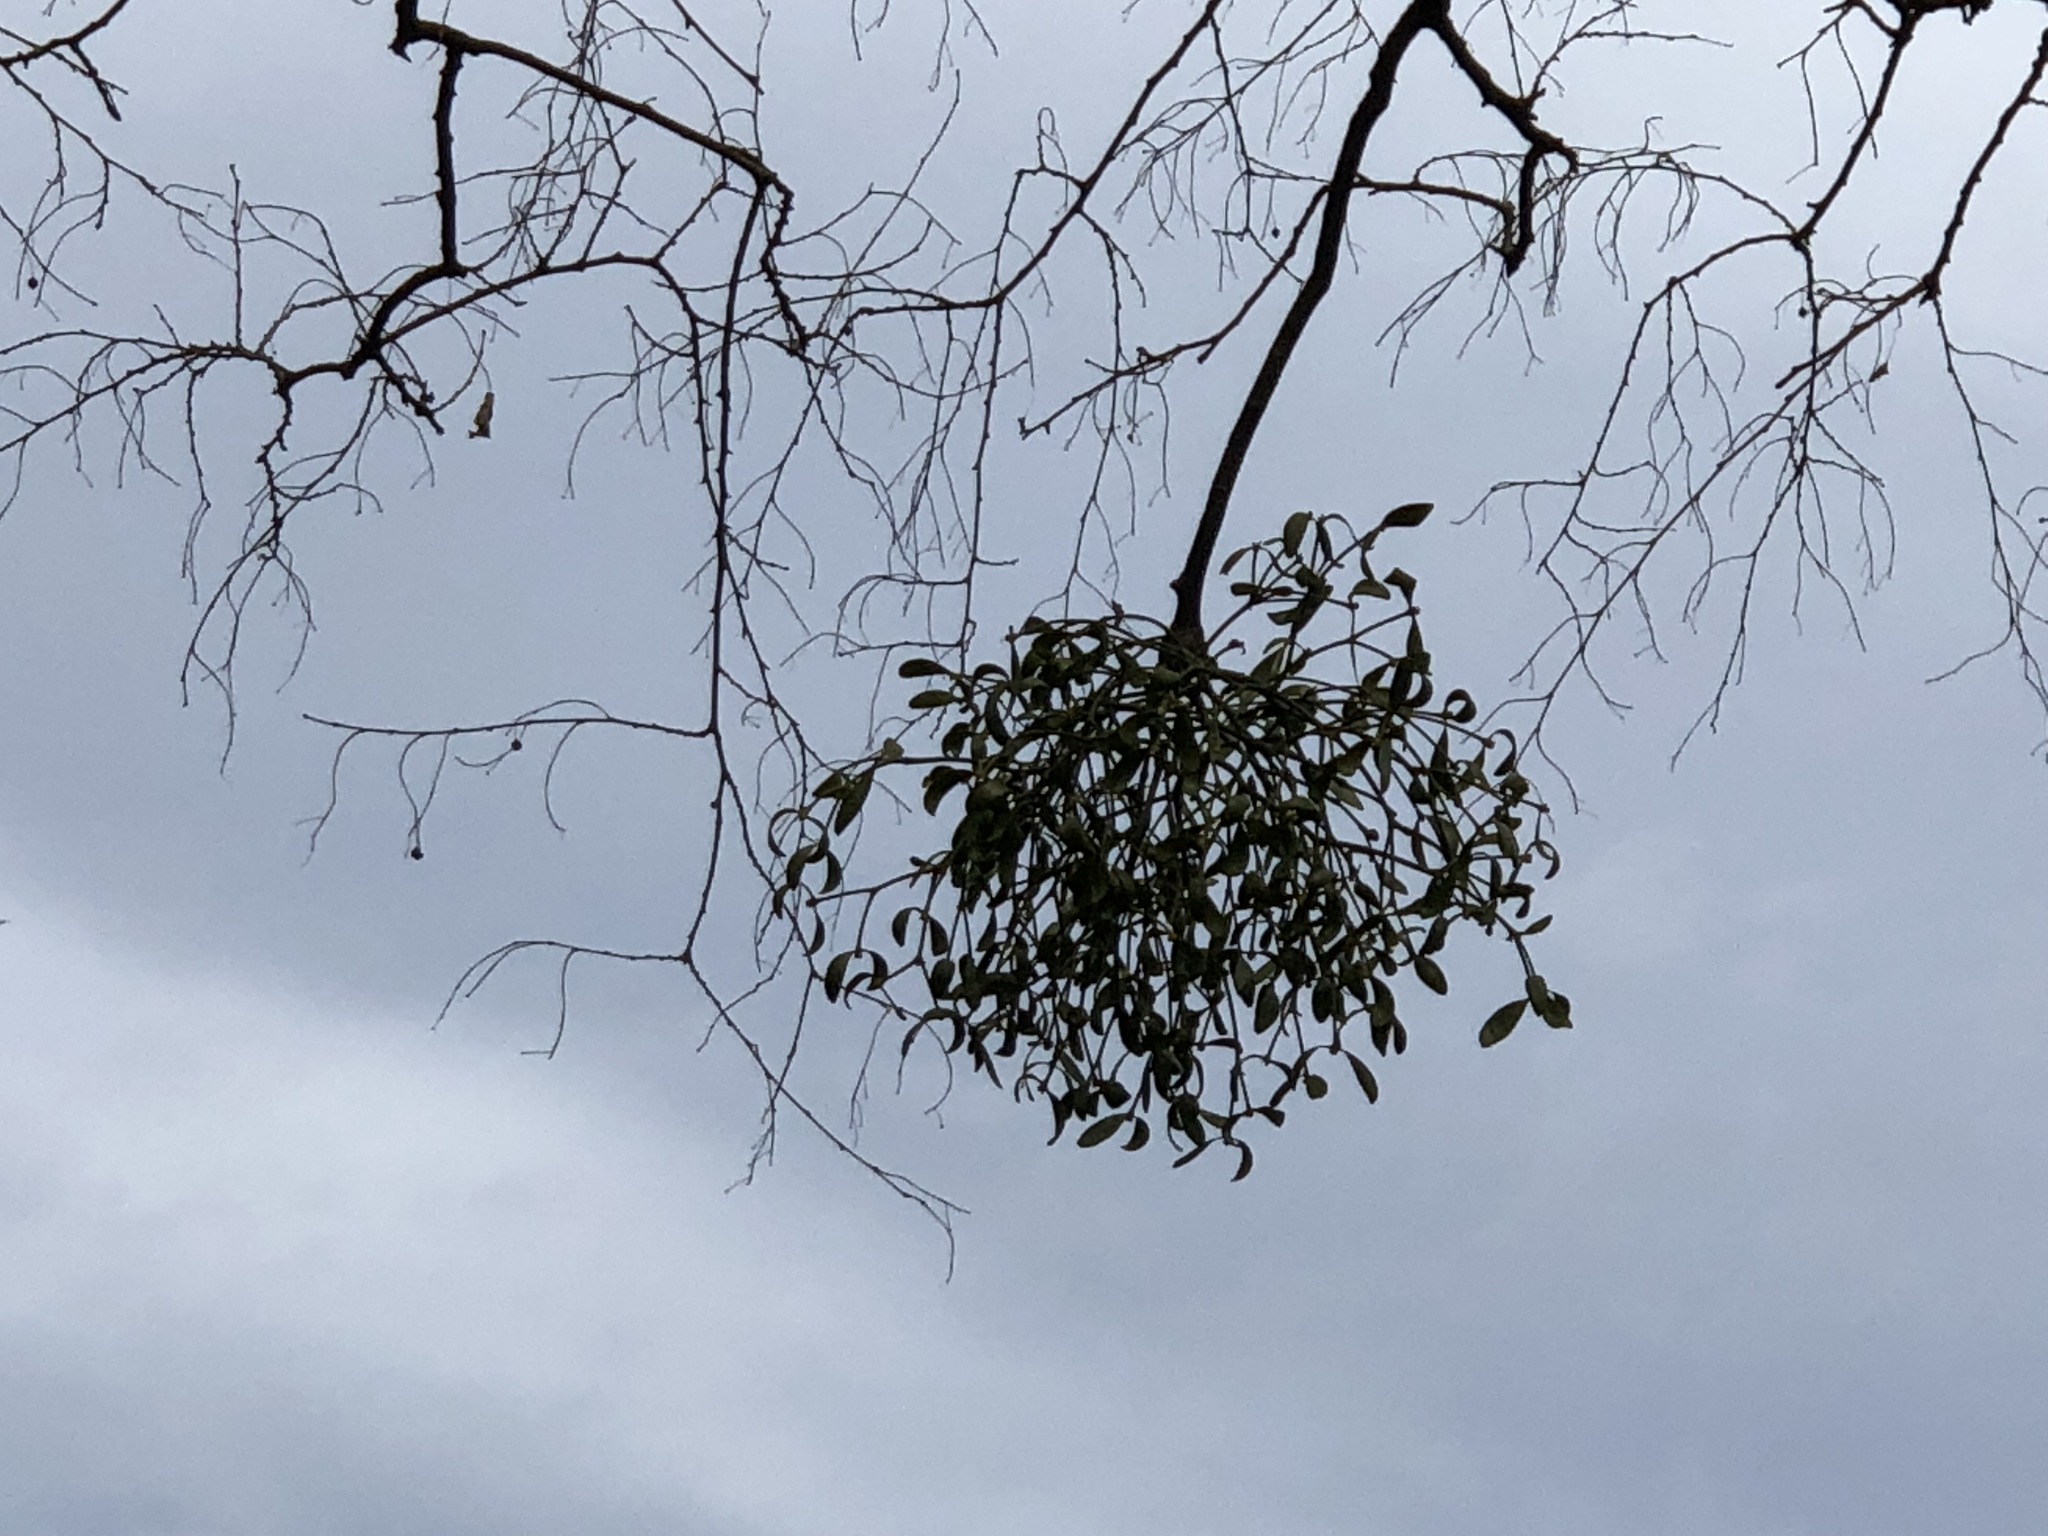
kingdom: Plantae
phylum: Tracheophyta
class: Magnoliopsida
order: Santalales
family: Viscaceae
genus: Viscum
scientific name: Viscum album
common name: Mistletoe
